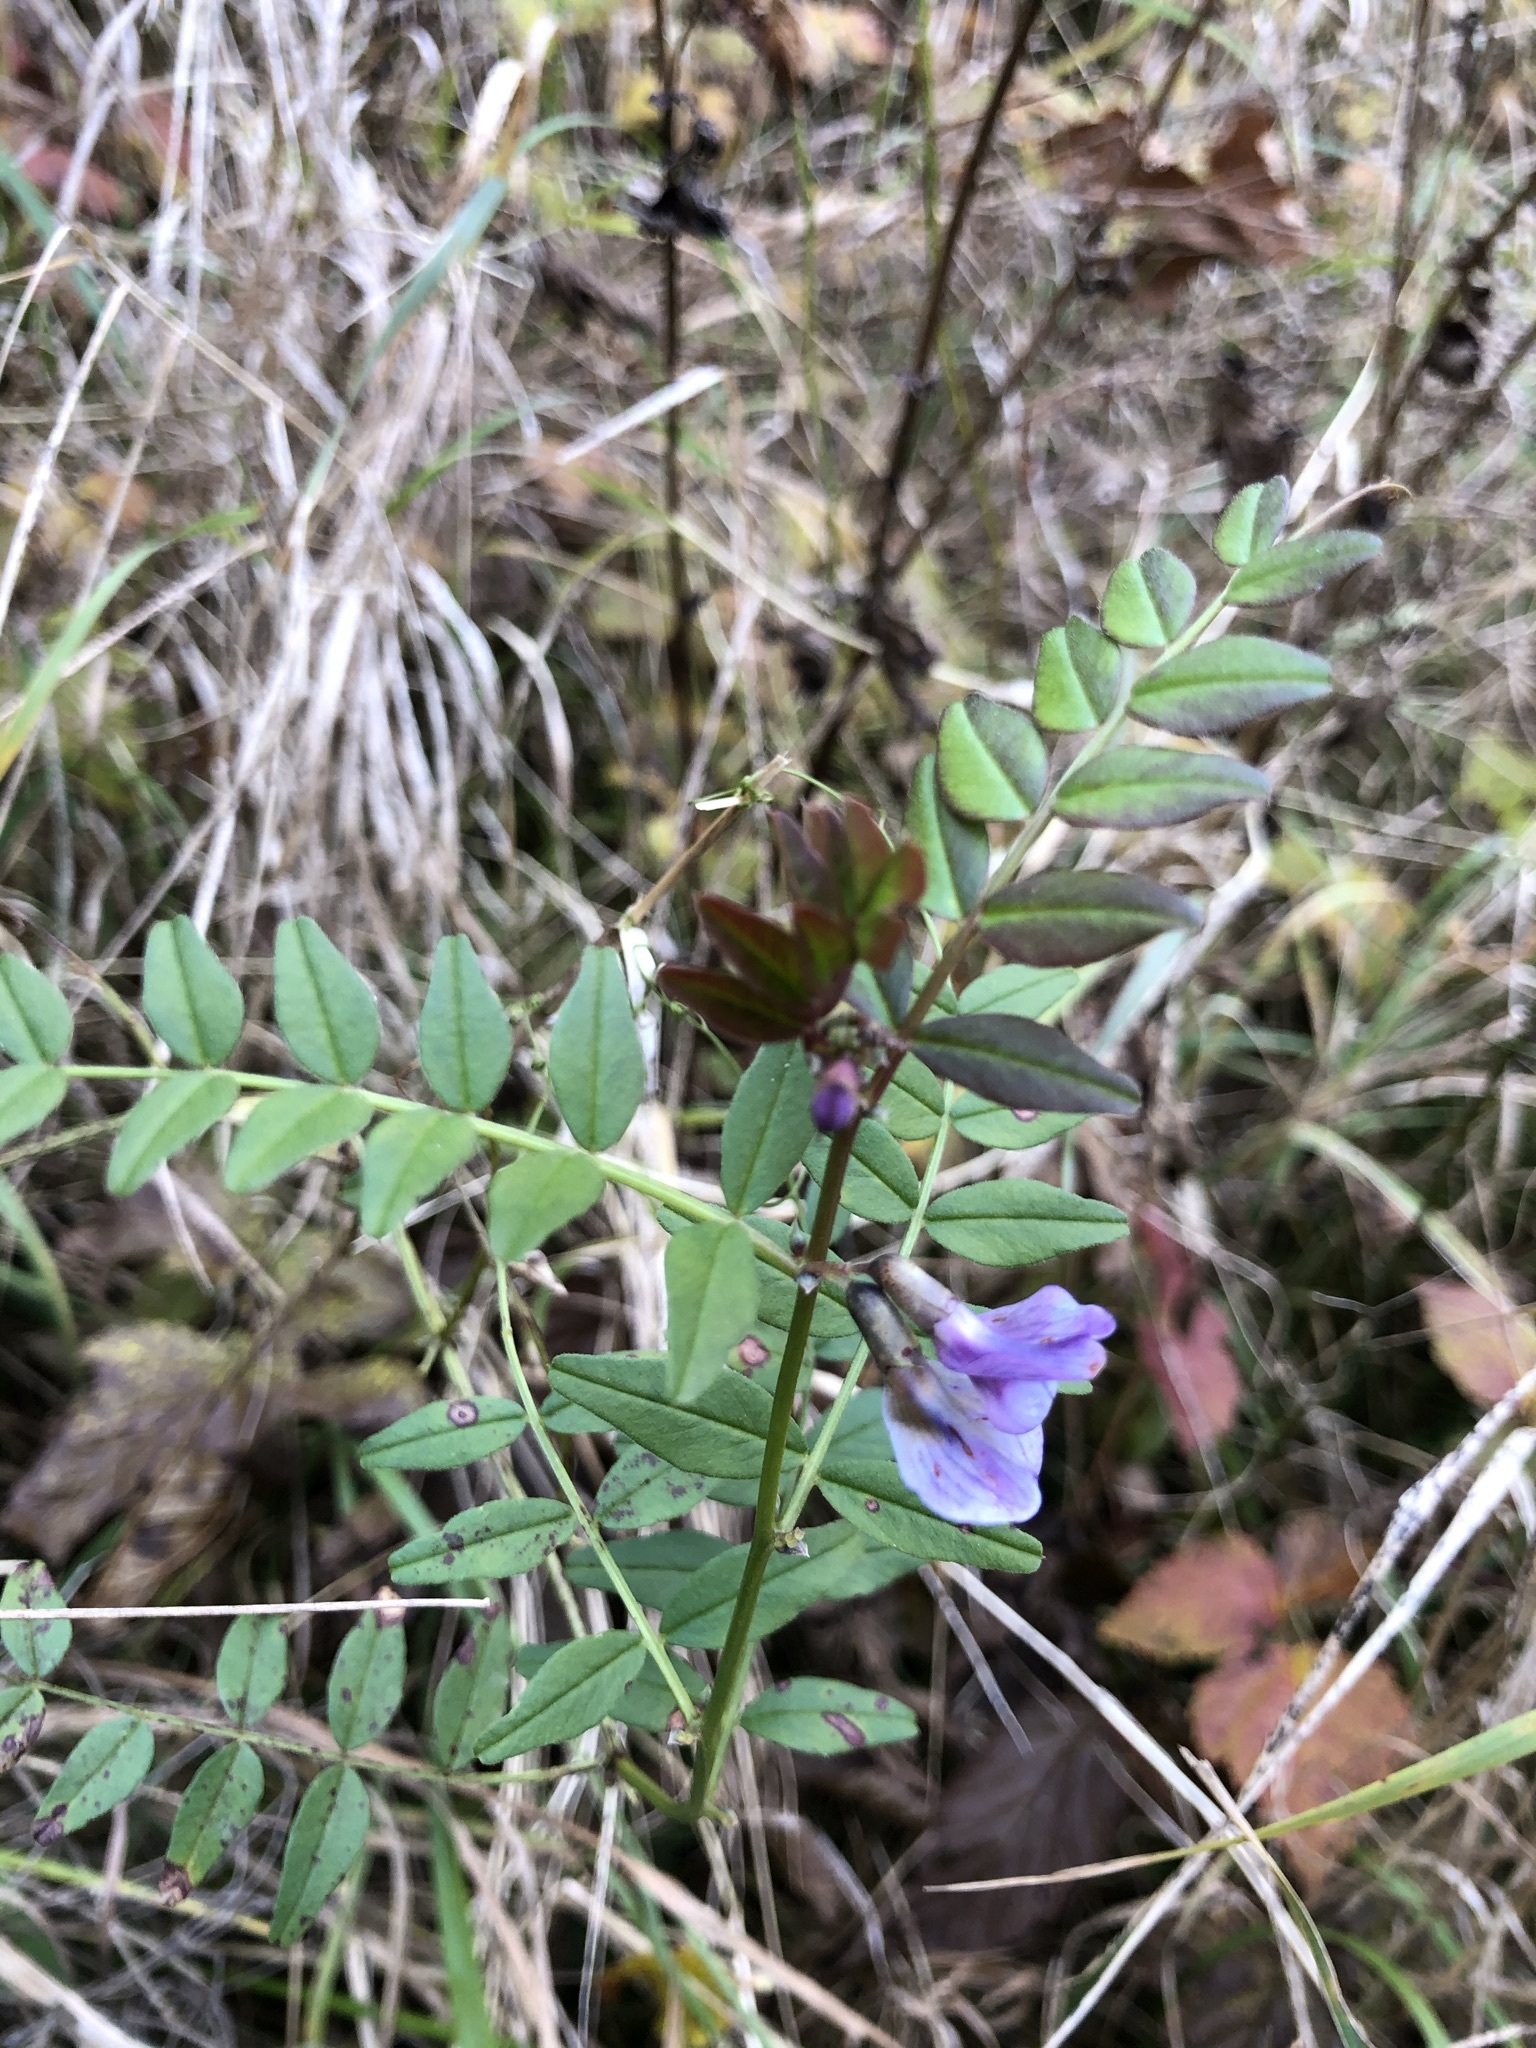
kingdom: Plantae
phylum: Tracheophyta
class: Magnoliopsida
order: Fabales
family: Fabaceae
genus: Vicia
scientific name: Vicia sepium
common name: Bush vetch
